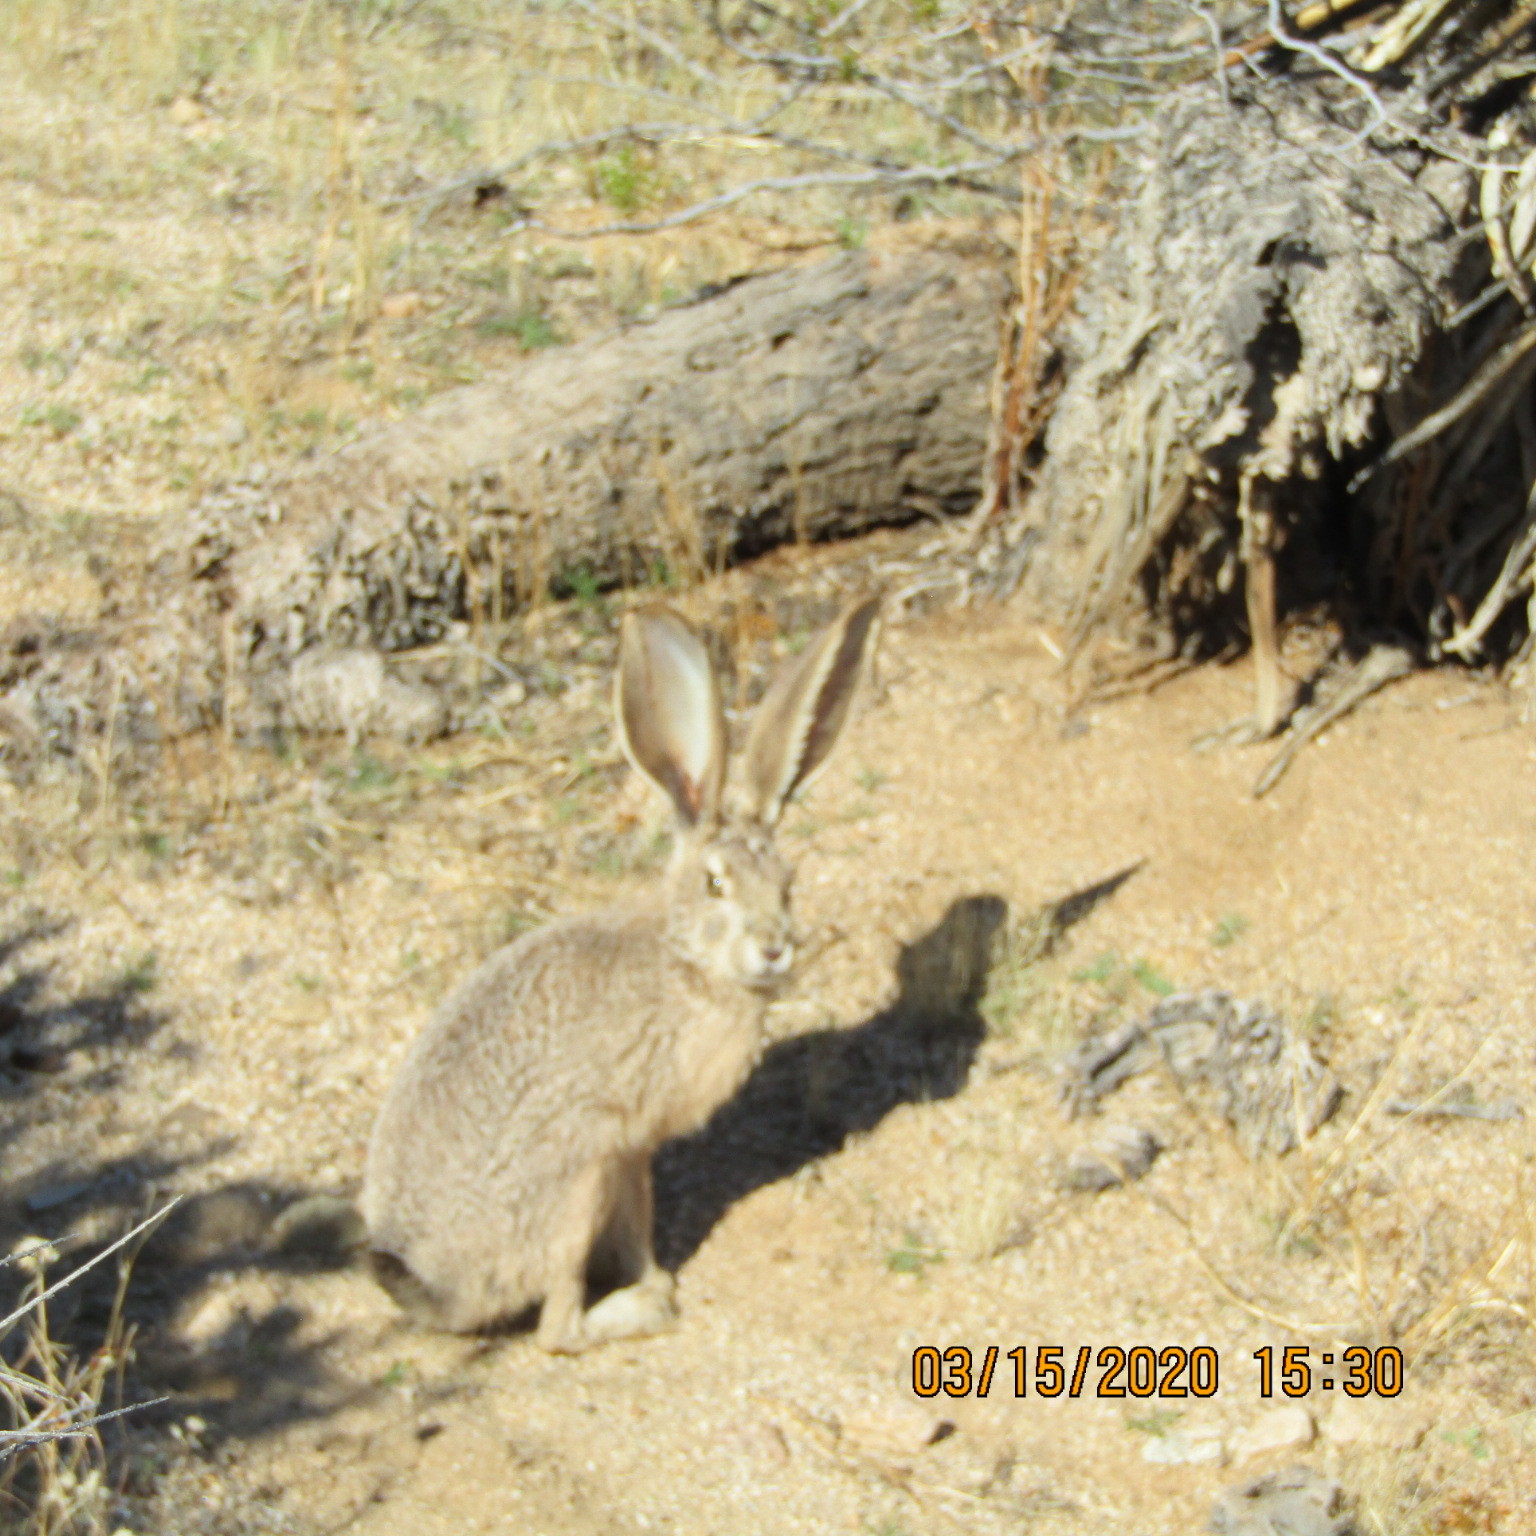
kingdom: Animalia
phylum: Chordata
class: Mammalia
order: Lagomorpha
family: Leporidae
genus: Lepus
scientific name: Lepus californicus
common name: Black-tailed jackrabbit
